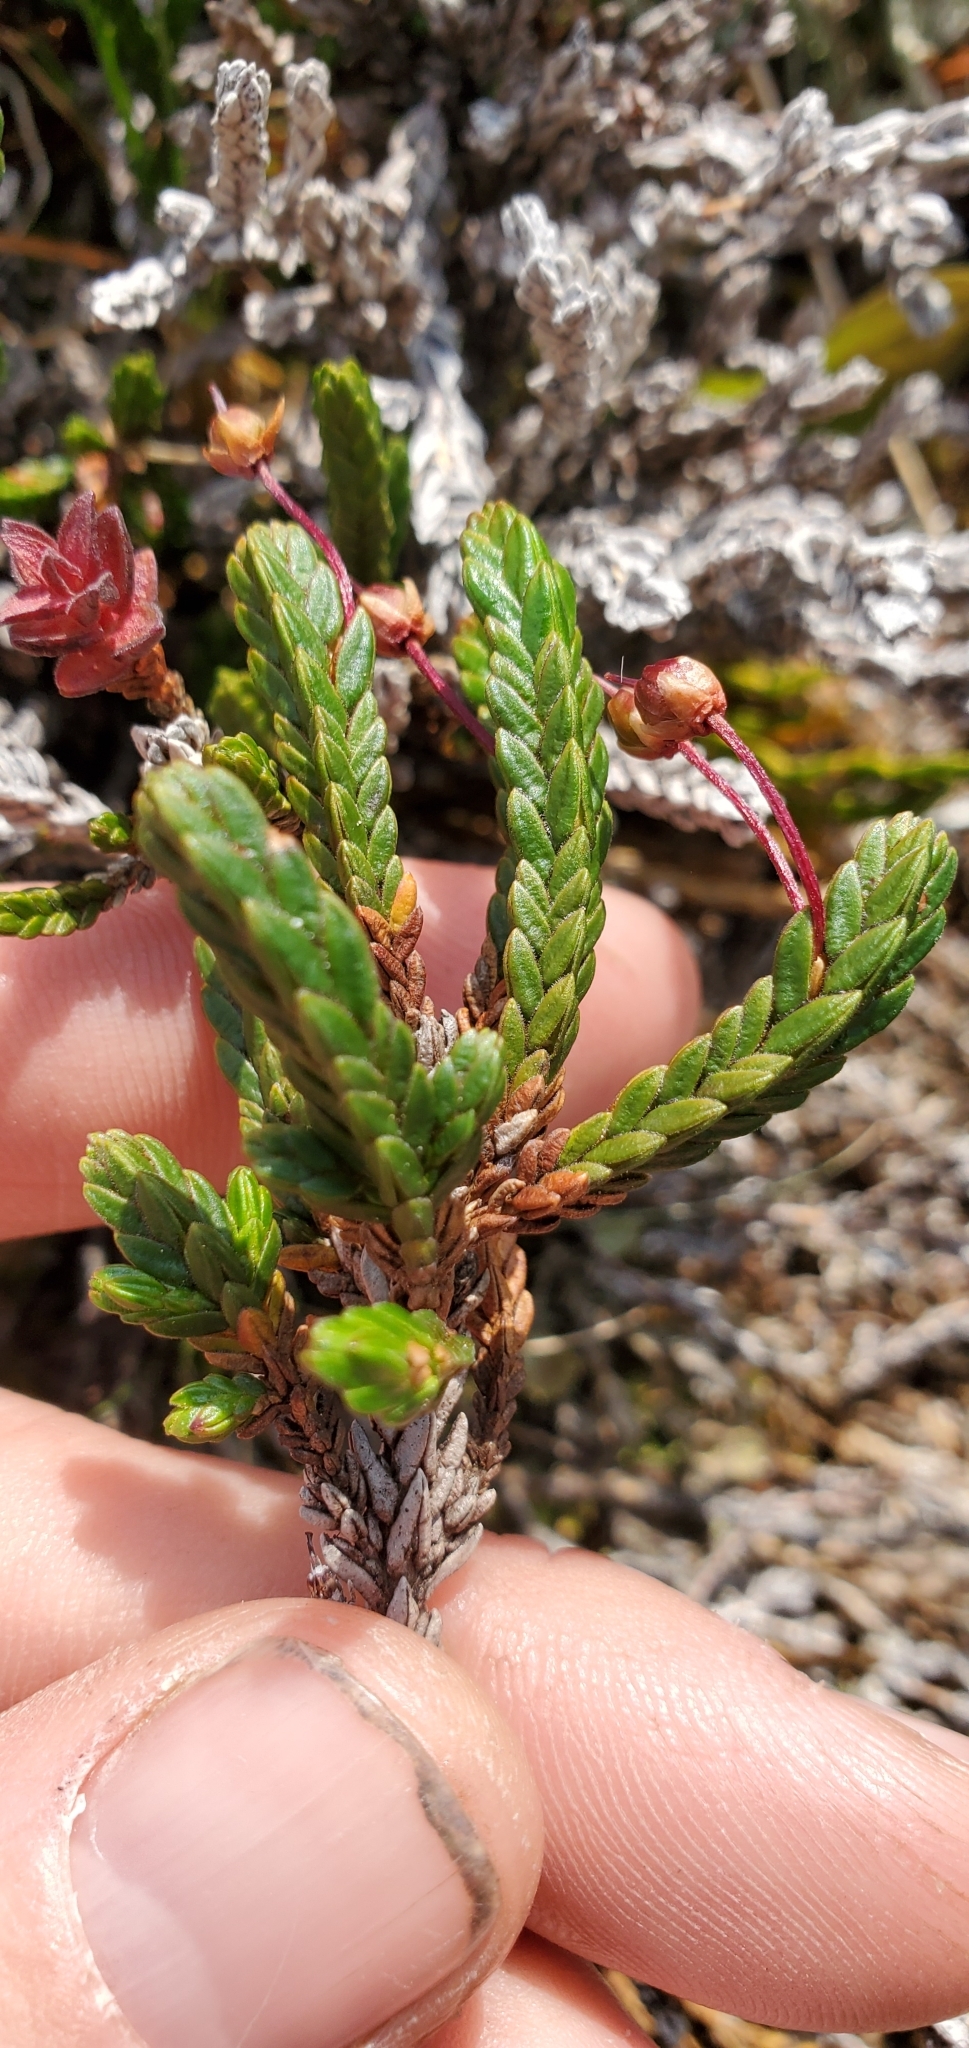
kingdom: Plantae
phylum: Tracheophyta
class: Magnoliopsida
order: Ericales
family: Ericaceae
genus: Cassiope
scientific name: Cassiope tetragona
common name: Arctic bell heather
